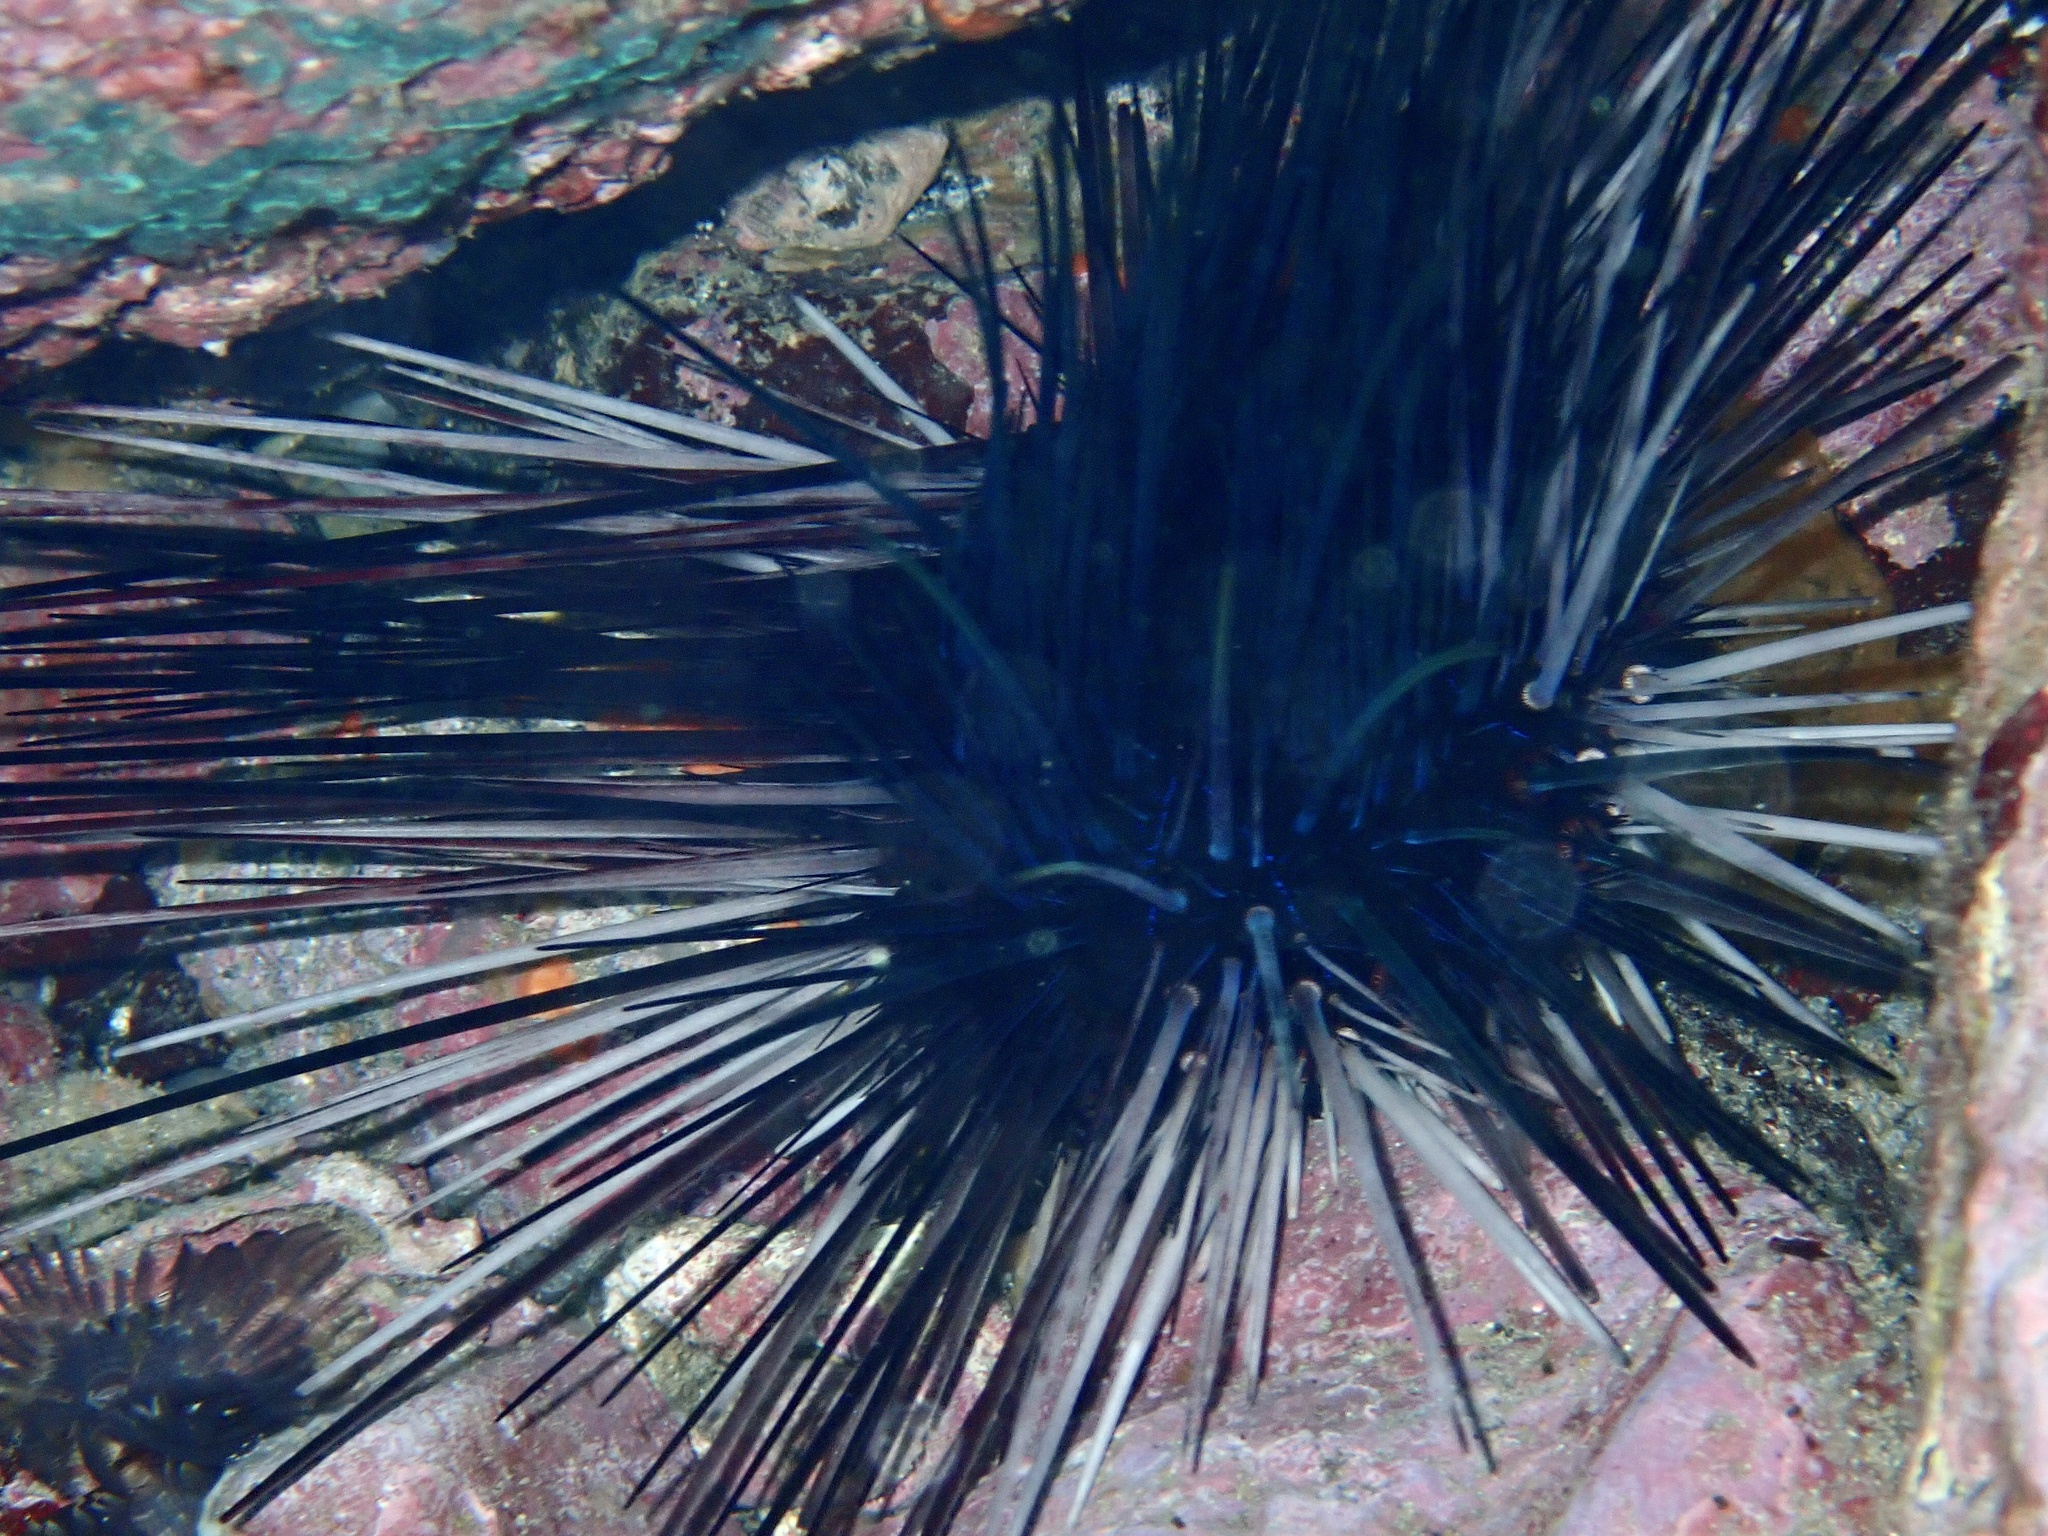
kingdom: Animalia
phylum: Echinodermata
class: Echinoidea
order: Diadematoida
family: Diadematidae
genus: Diadema
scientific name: Diadema africanum
